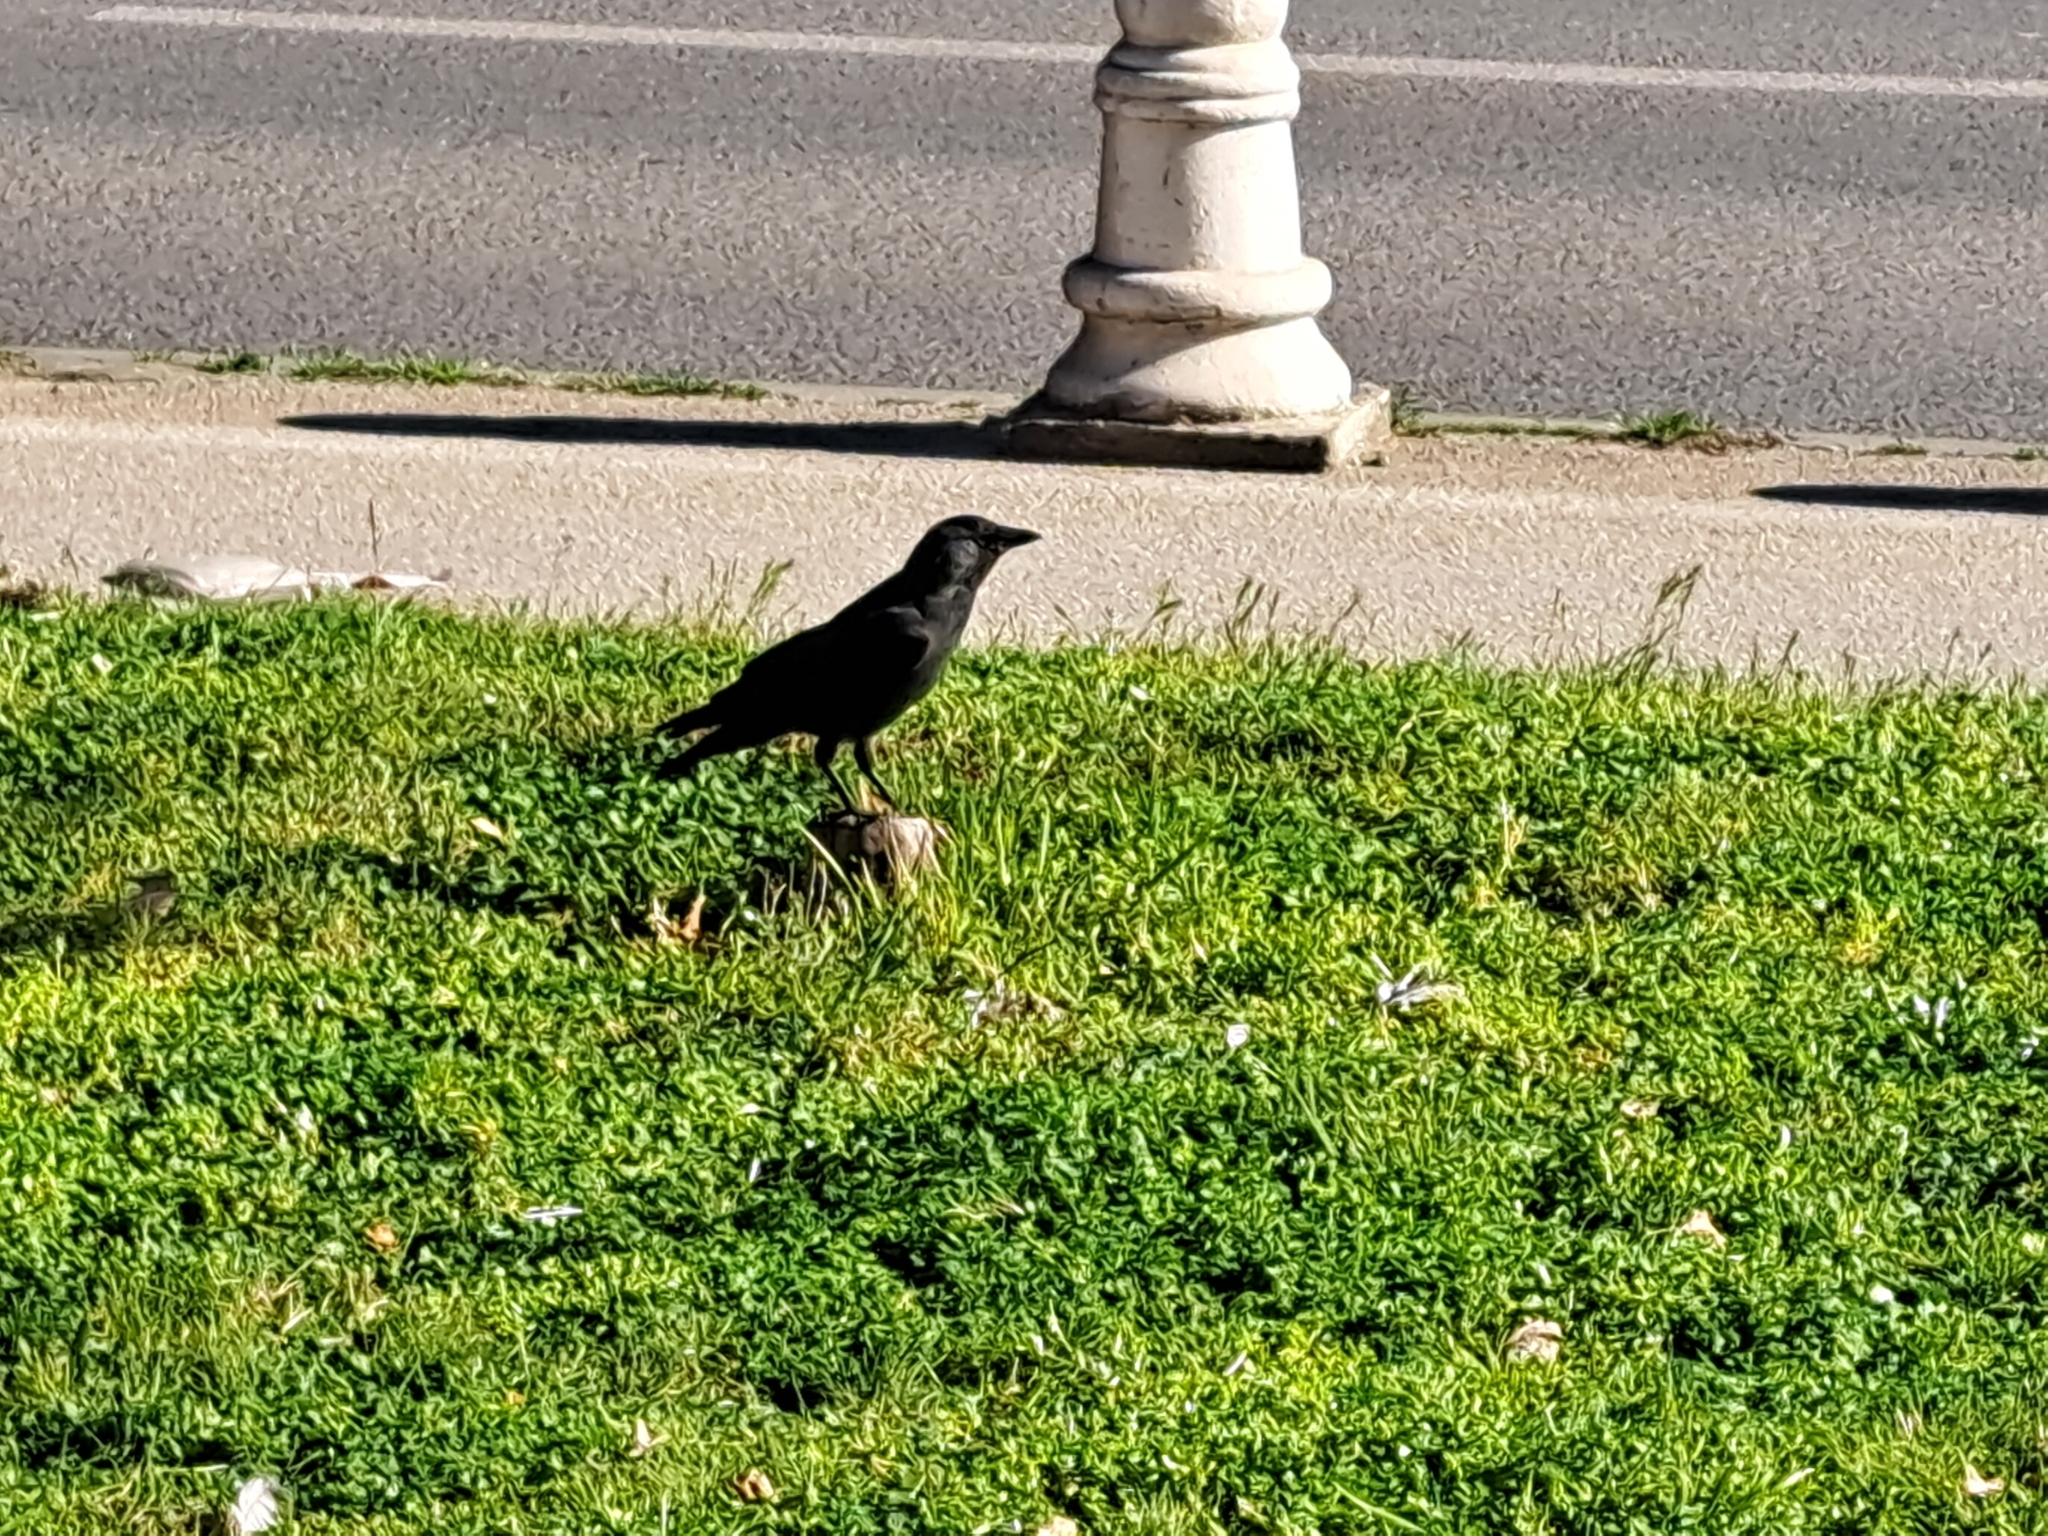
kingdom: Animalia
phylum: Chordata
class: Aves
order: Passeriformes
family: Corvidae
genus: Coloeus
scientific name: Coloeus monedula
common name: Western jackdaw
